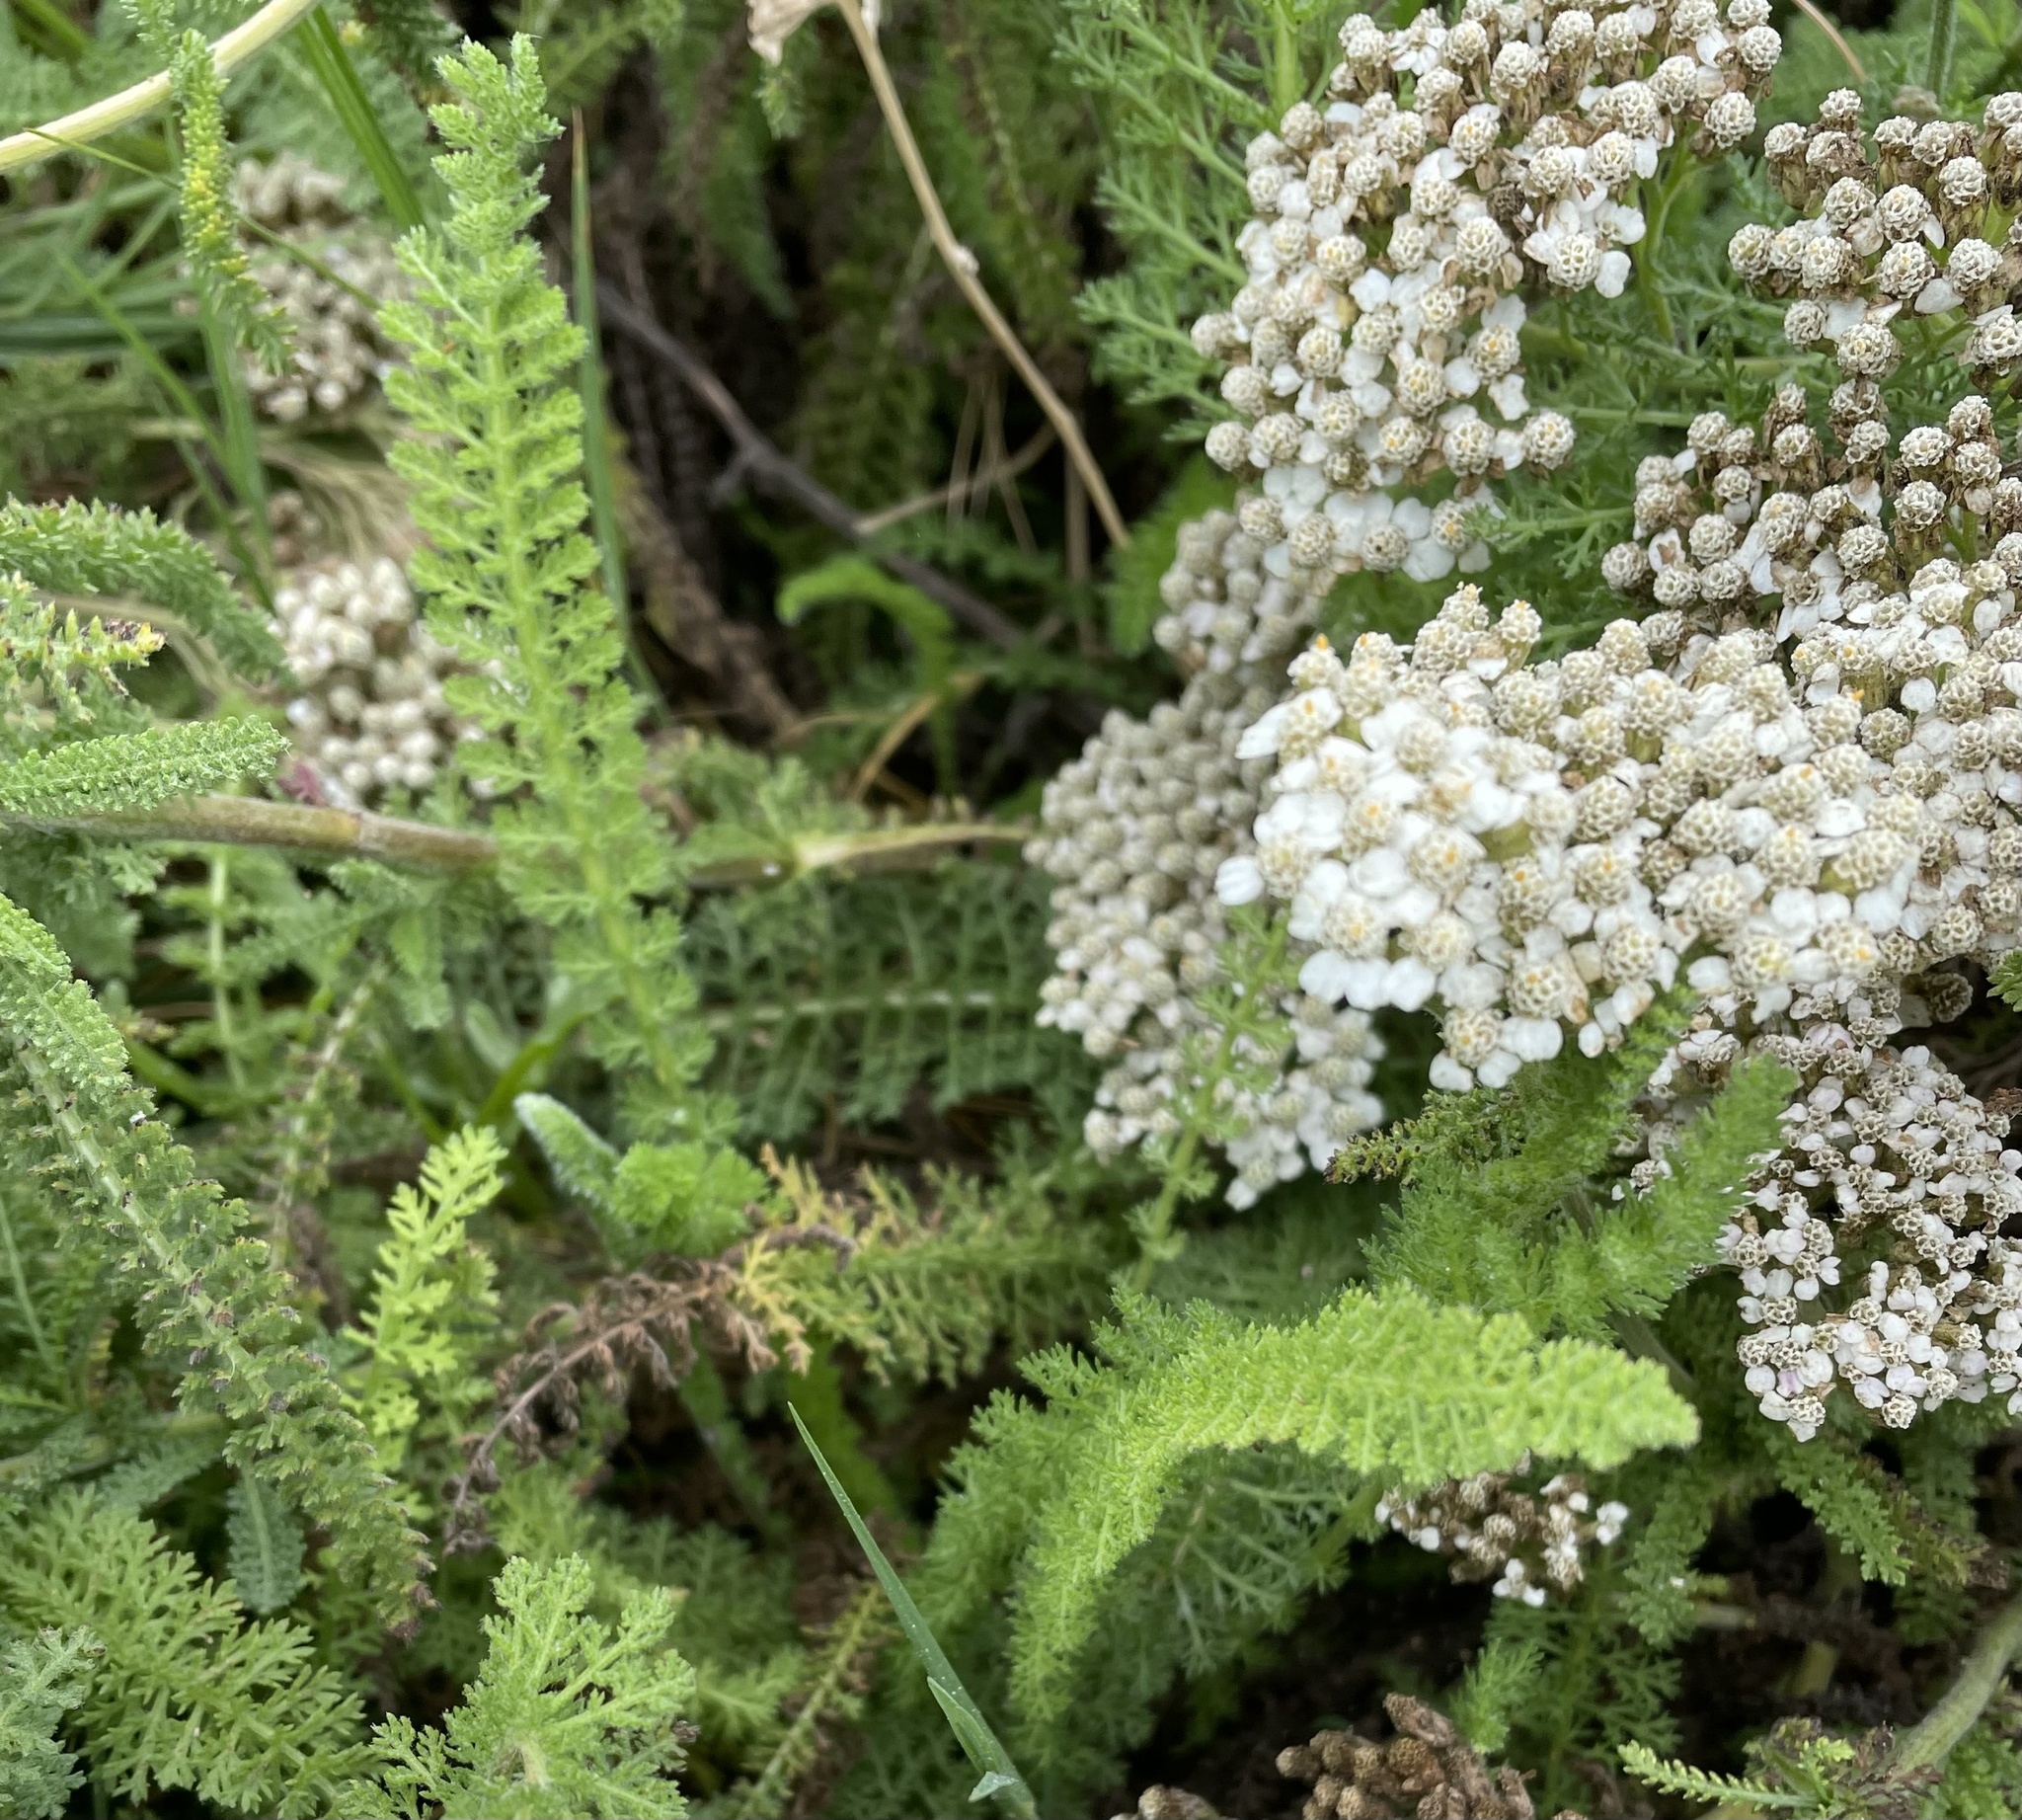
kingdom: Plantae
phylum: Tracheophyta
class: Magnoliopsida
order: Asterales
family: Asteraceae
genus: Achillea
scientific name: Achillea millefolium
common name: Yarrow
